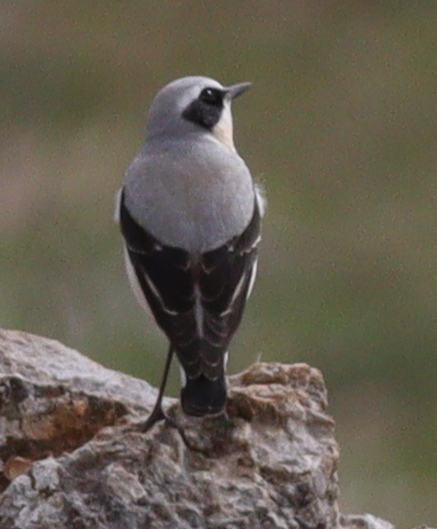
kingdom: Animalia
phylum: Chordata
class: Aves
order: Passeriformes
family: Muscicapidae
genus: Oenanthe
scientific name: Oenanthe oenanthe
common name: Northern wheatear
